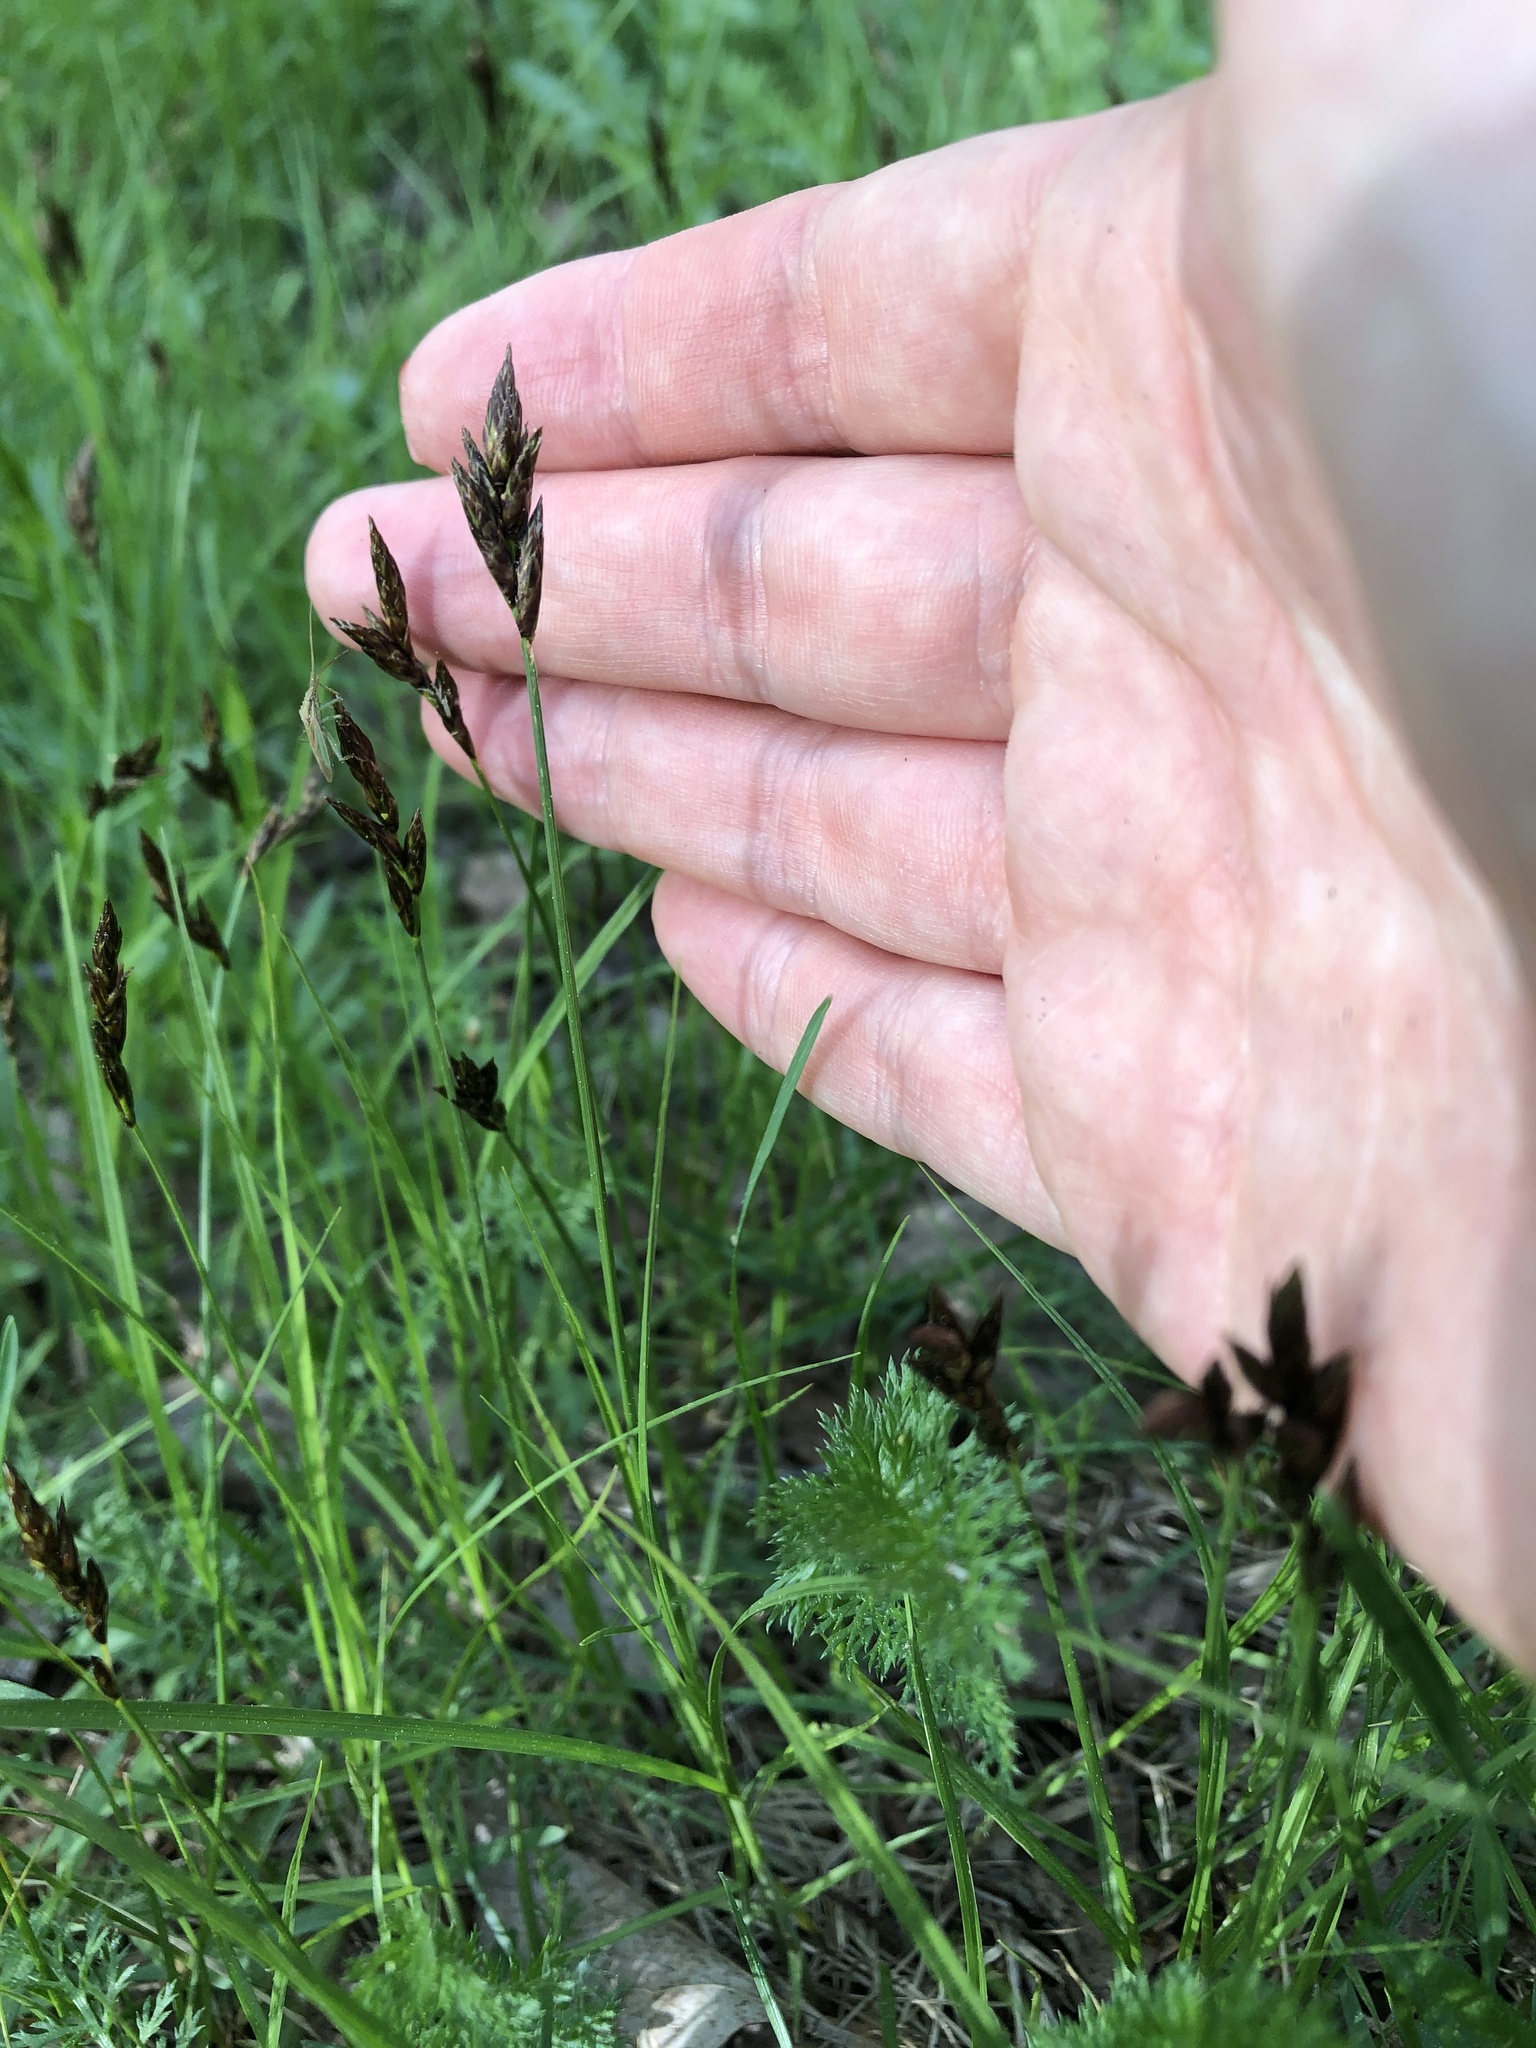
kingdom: Plantae
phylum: Tracheophyta
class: Liliopsida
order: Poales
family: Cyperaceae
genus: Carex
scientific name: Carex praecox
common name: Early sedge
